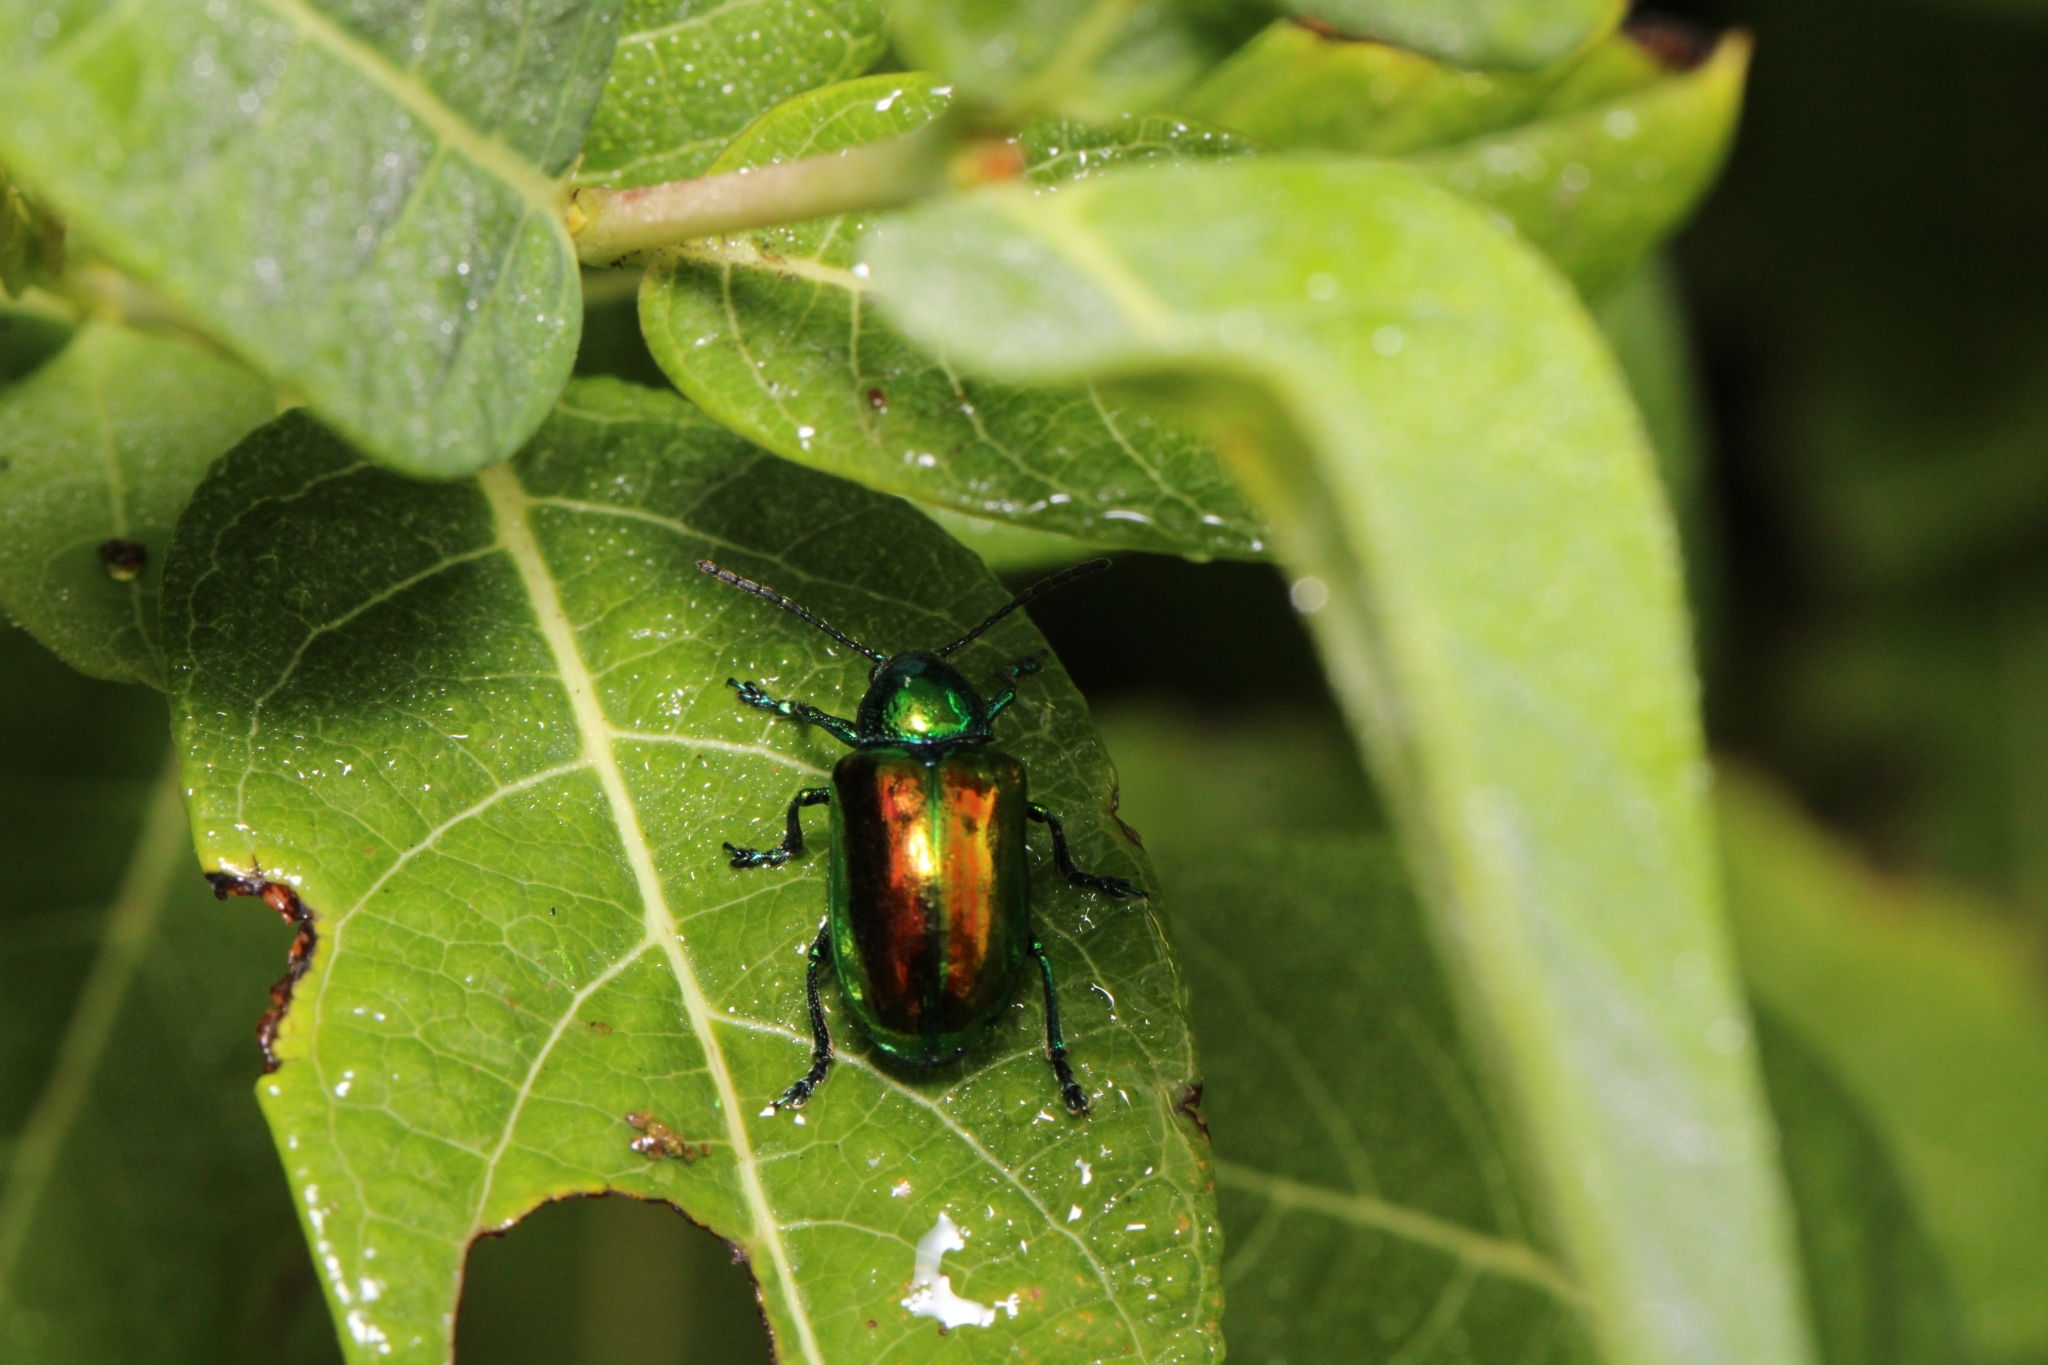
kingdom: Animalia
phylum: Arthropoda
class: Insecta
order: Coleoptera
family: Chrysomelidae
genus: Chrysochus
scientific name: Chrysochus auratus
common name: Dogbane leaf beetle
